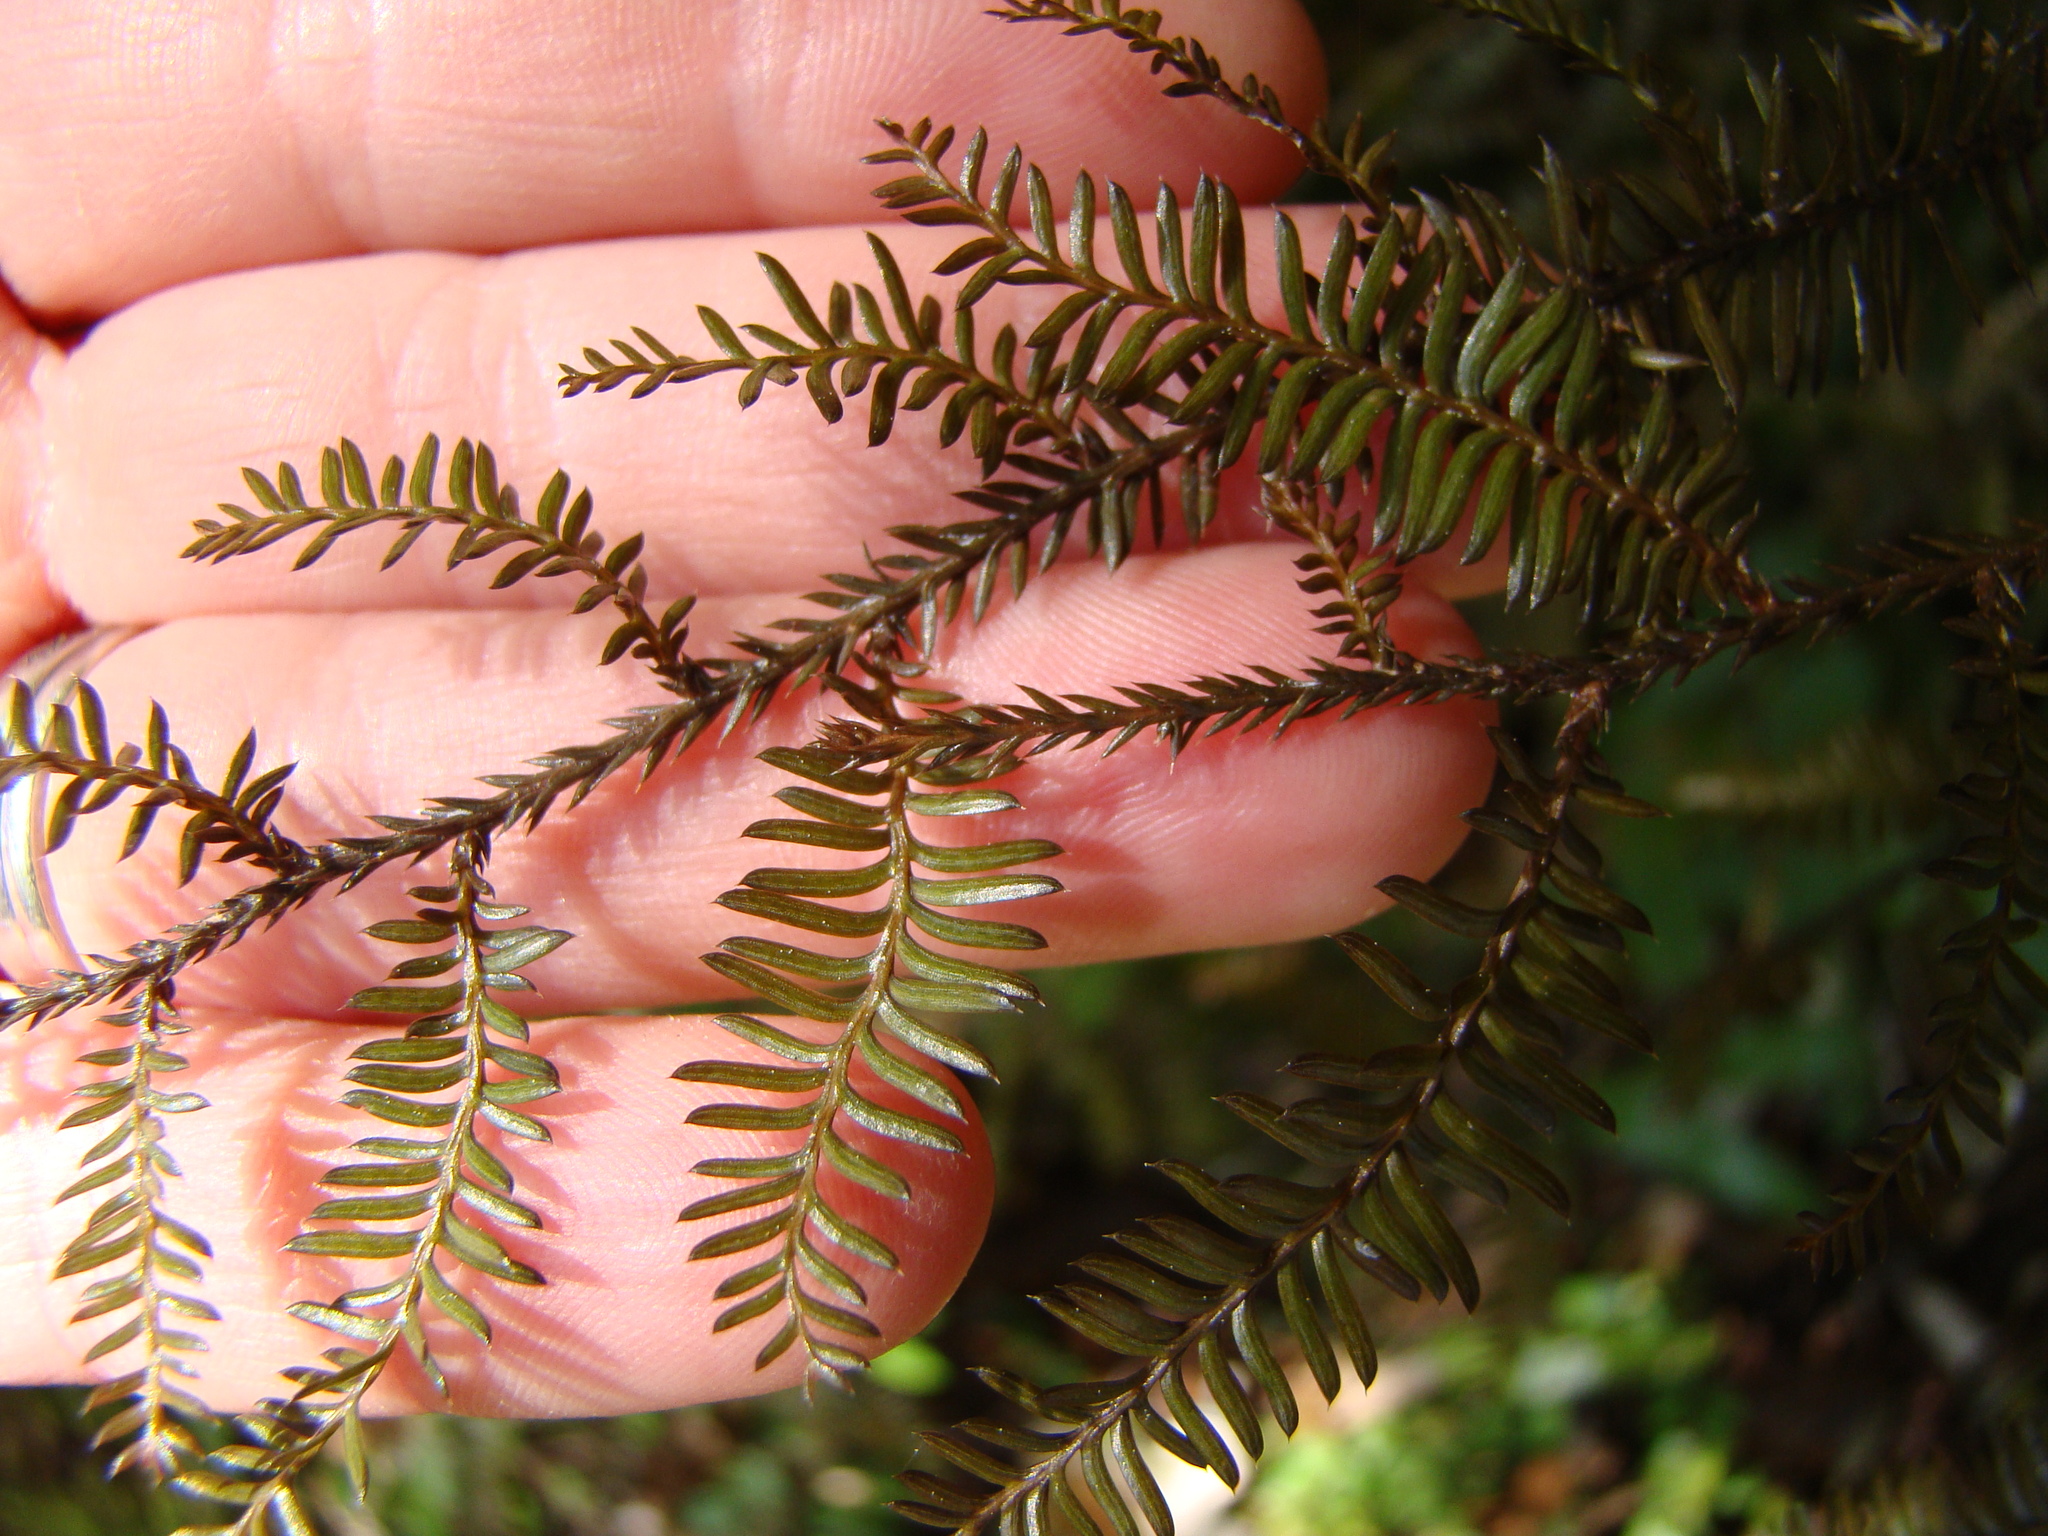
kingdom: Plantae
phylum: Tracheophyta
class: Pinopsida
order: Pinales
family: Podocarpaceae
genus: Dacrycarpus
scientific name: Dacrycarpus dacrydioides
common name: White pine
